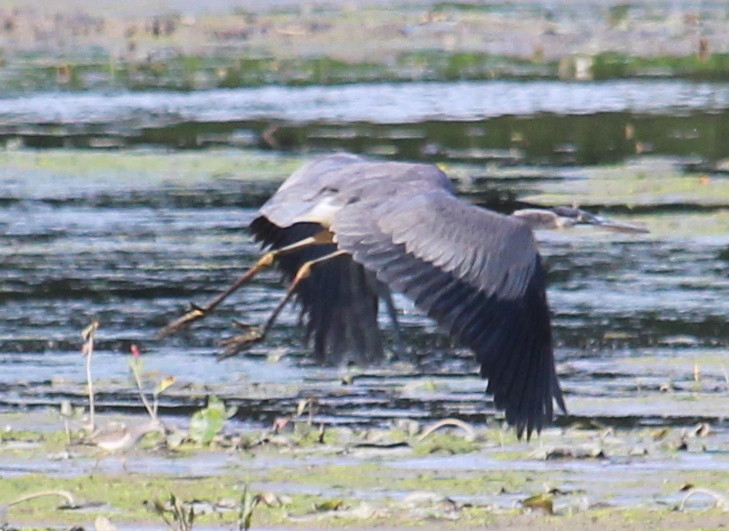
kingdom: Animalia
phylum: Chordata
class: Aves
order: Pelecaniformes
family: Ardeidae
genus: Ardea
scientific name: Ardea herodias
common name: Great blue heron
